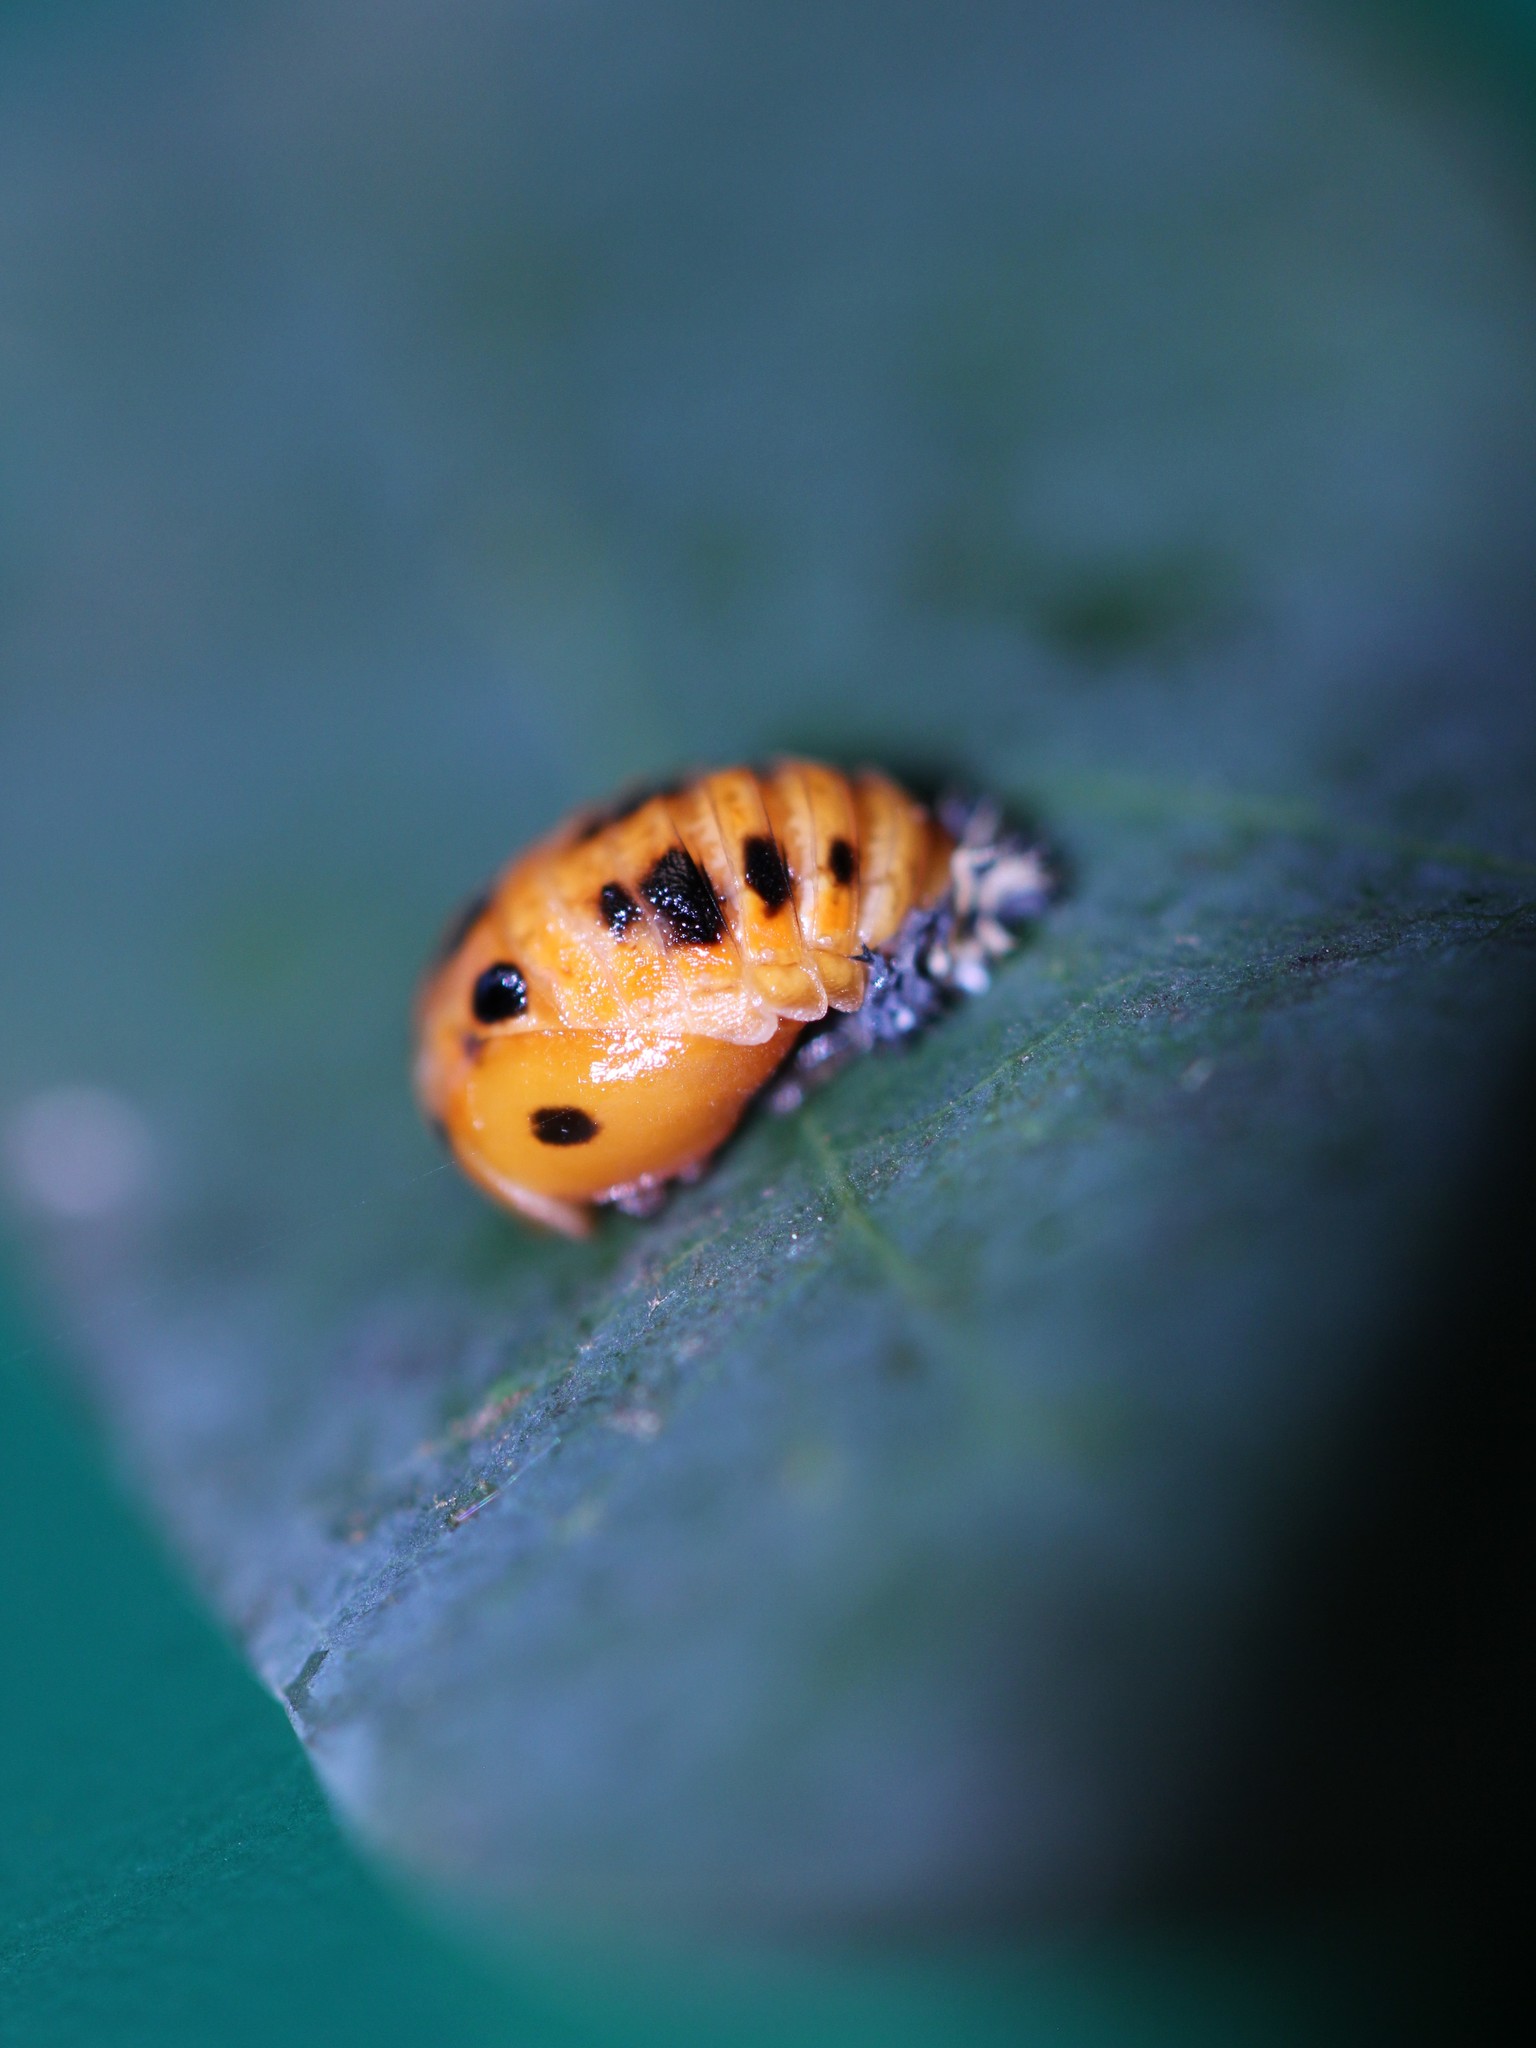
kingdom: Animalia
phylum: Arthropoda
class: Insecta
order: Coleoptera
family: Coccinellidae
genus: Harmonia
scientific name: Harmonia axyridis
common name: Harlequin ladybird
